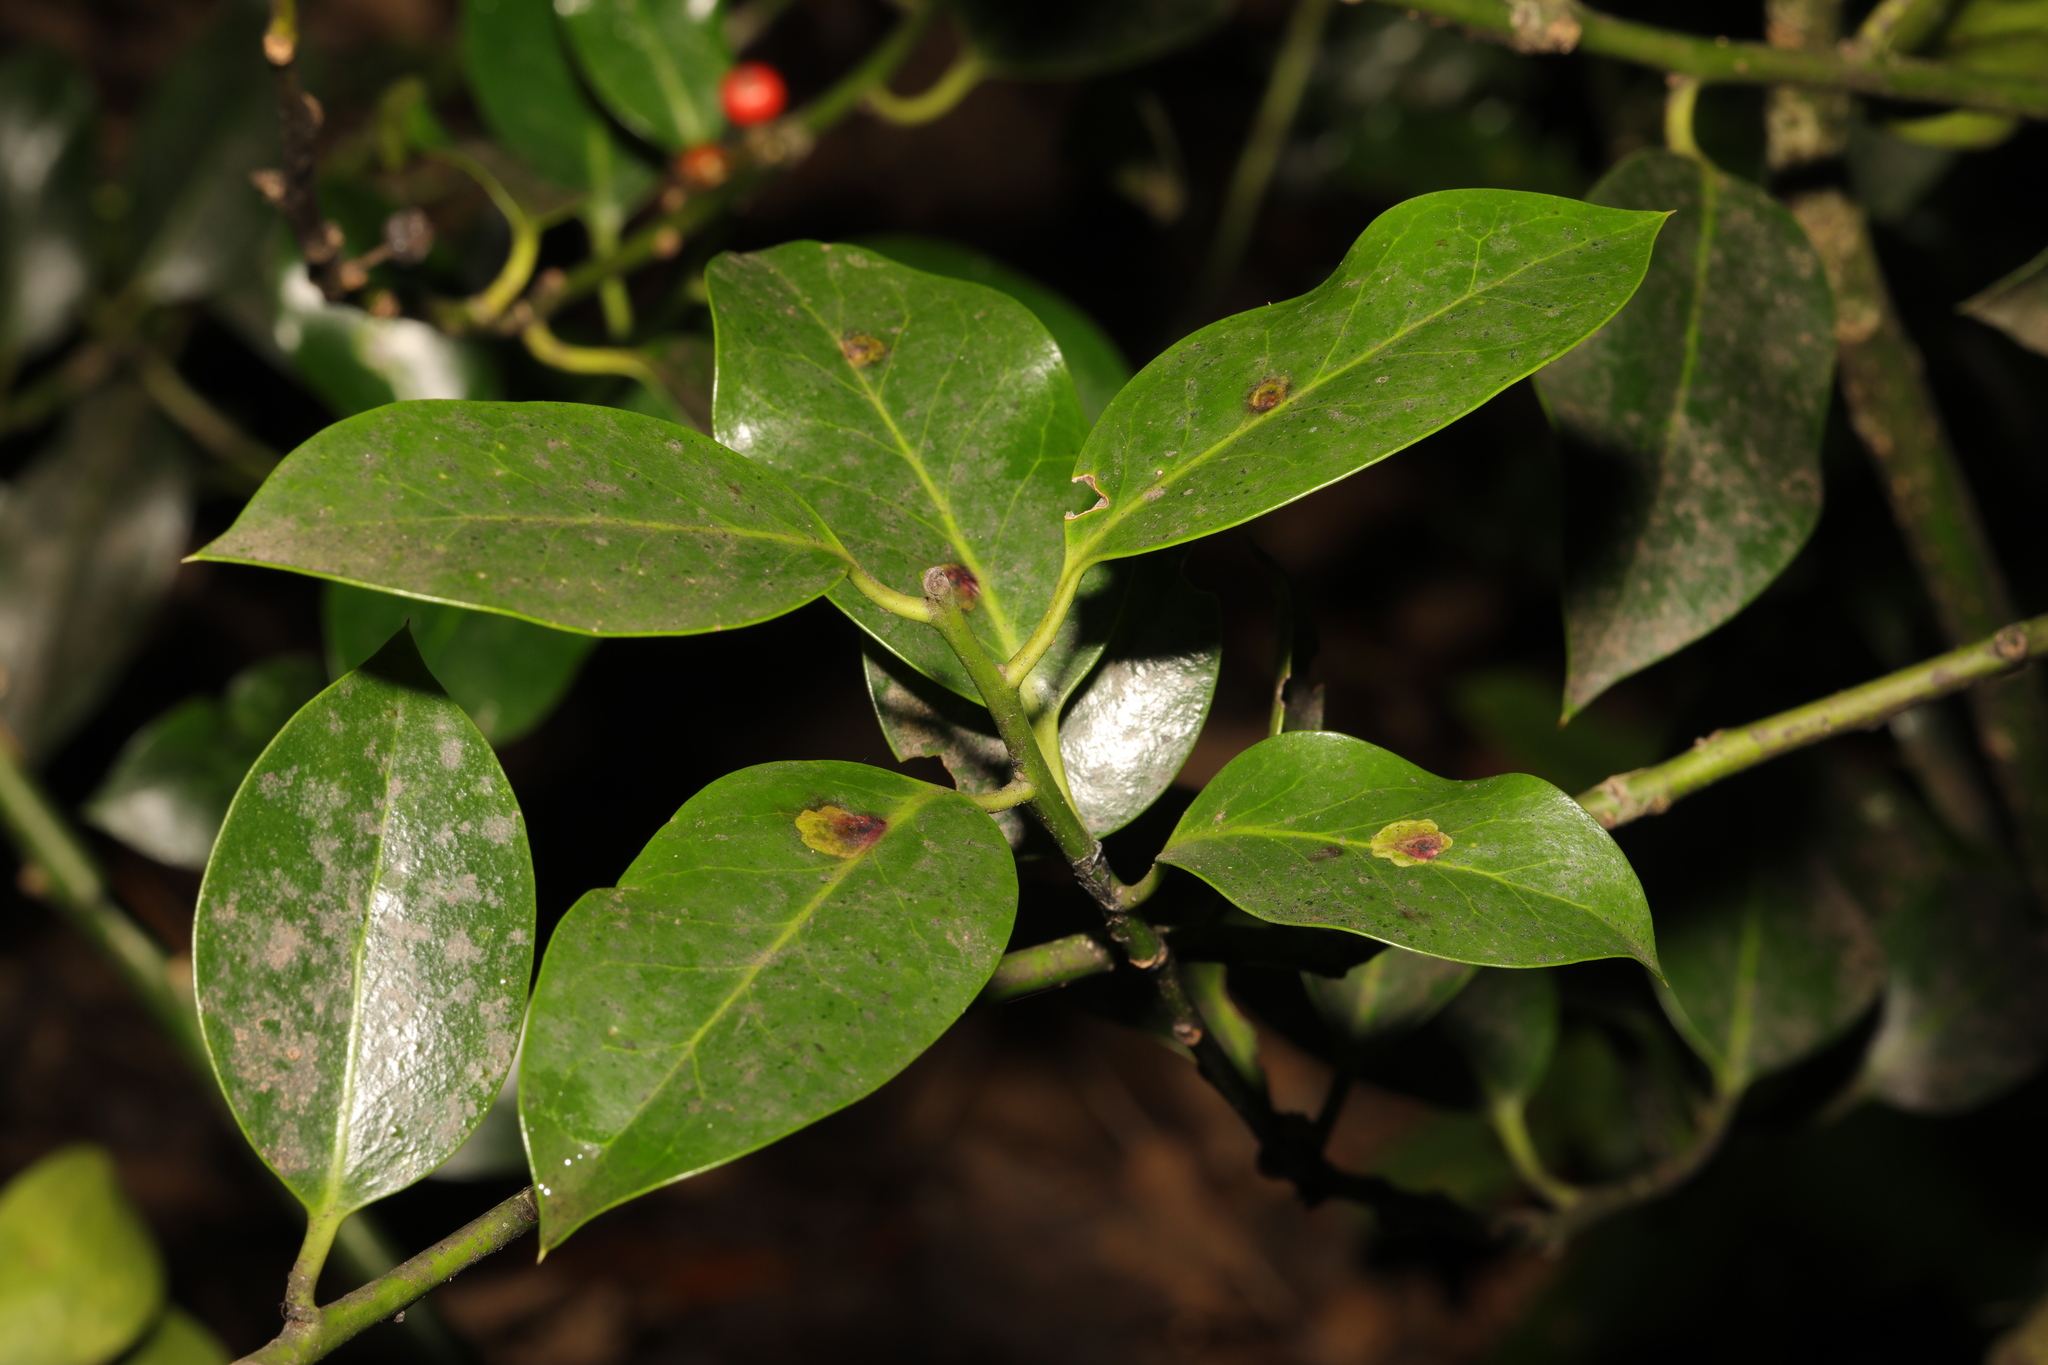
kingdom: Plantae
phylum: Tracheophyta
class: Magnoliopsida
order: Aquifoliales
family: Aquifoliaceae
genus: Ilex
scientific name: Ilex aquifolium
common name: English holly
